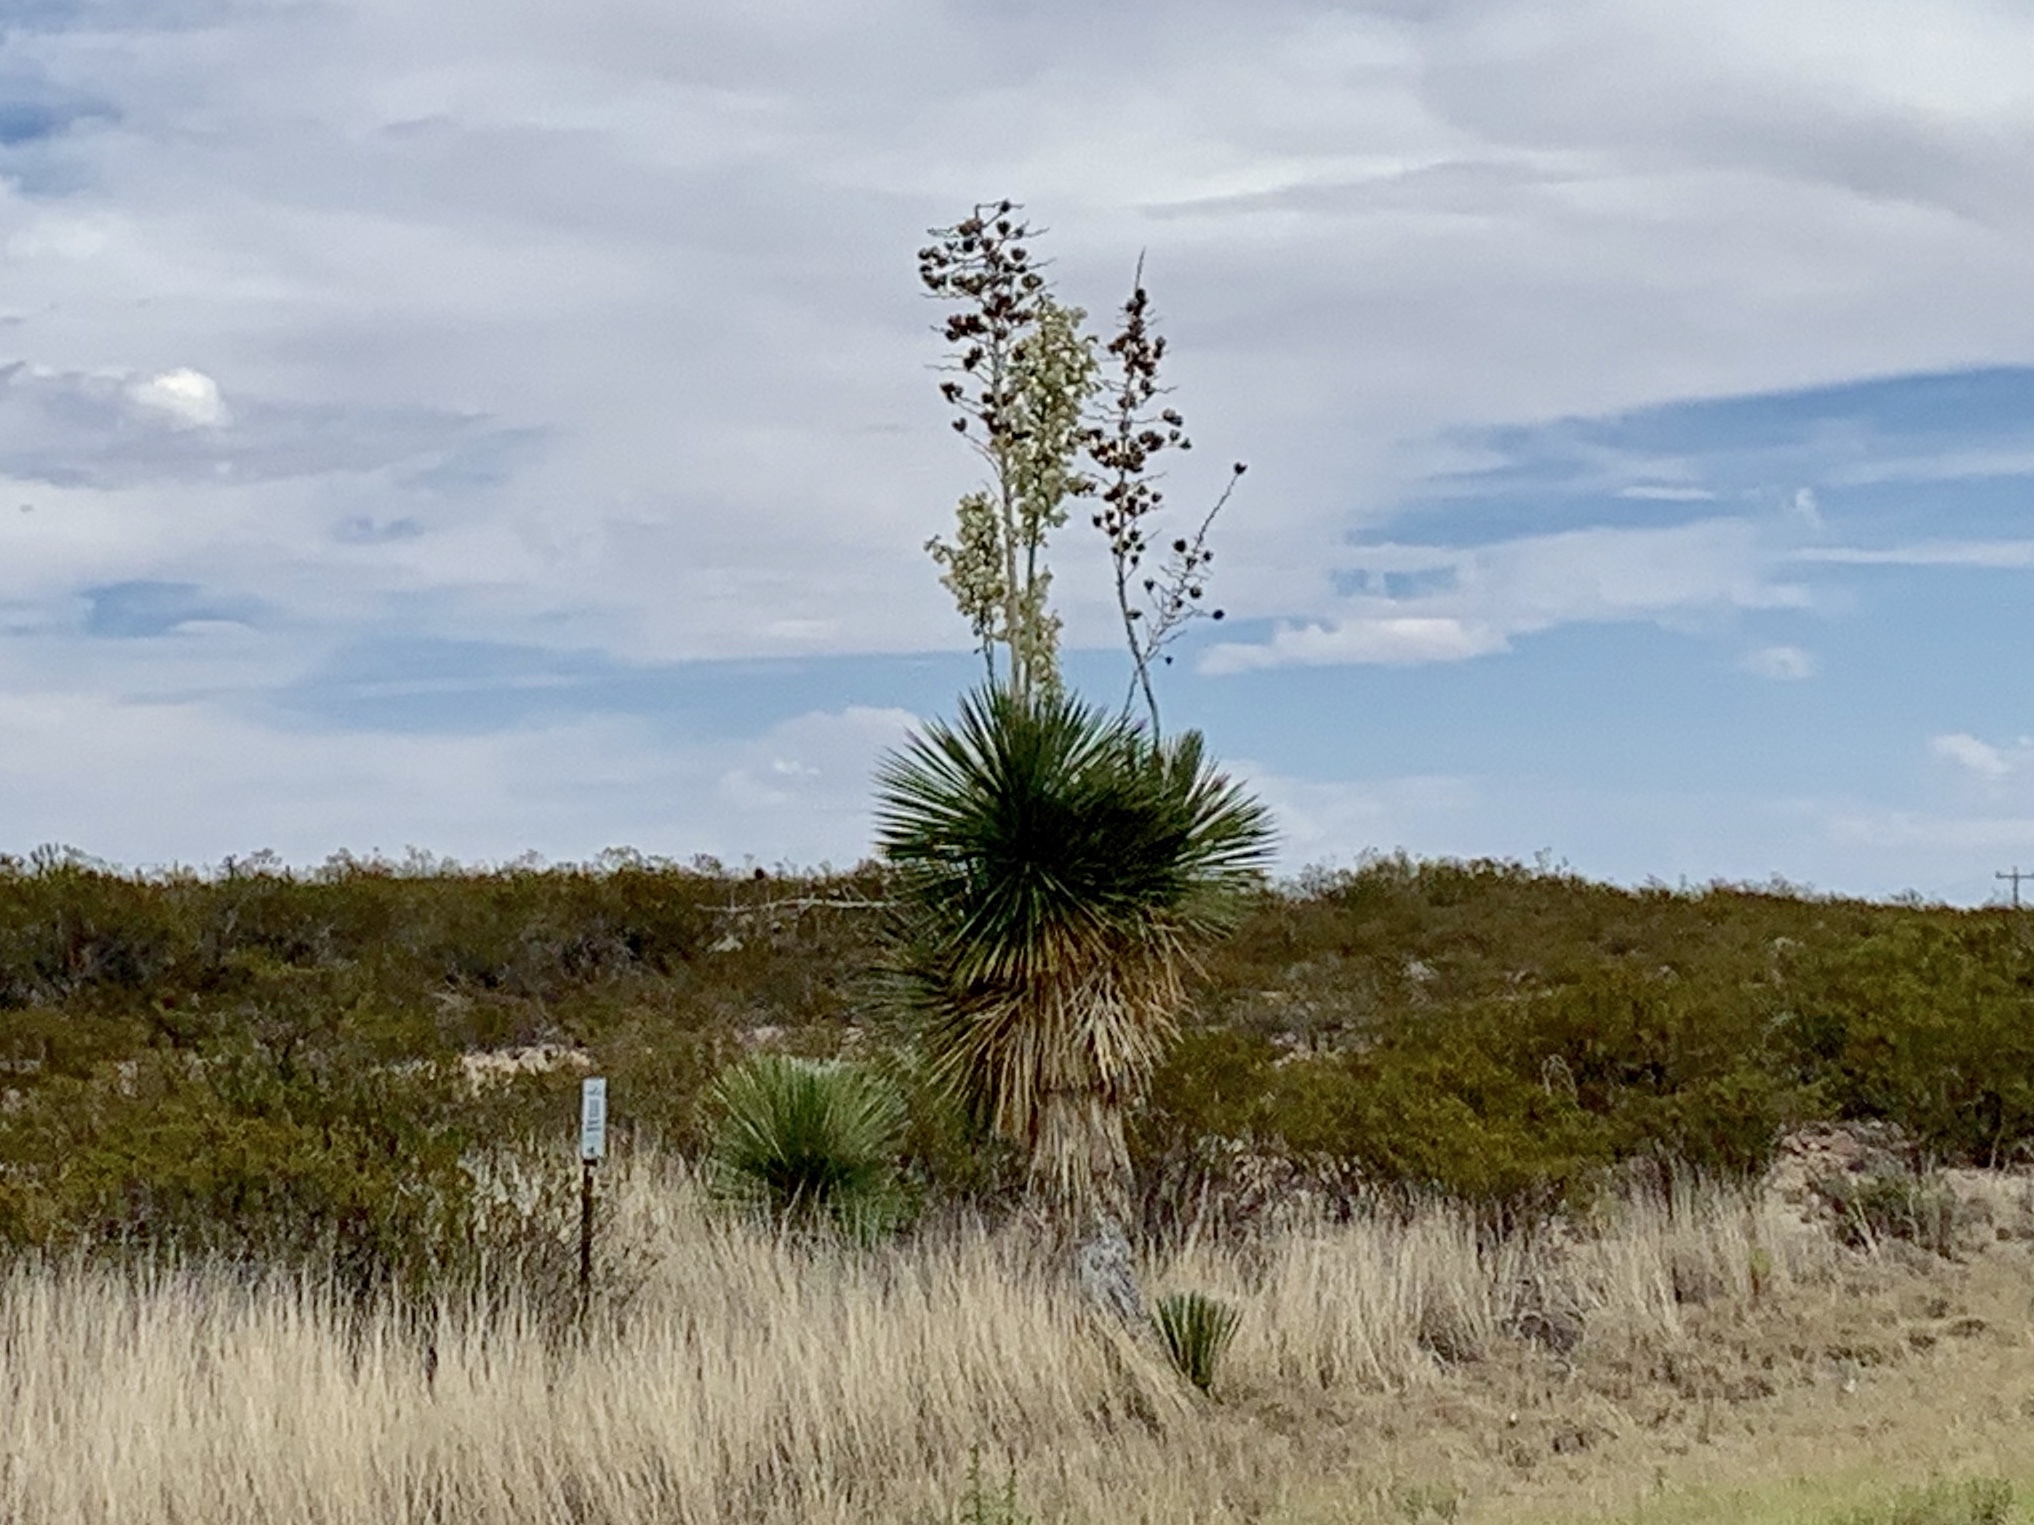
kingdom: Plantae
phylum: Tracheophyta
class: Liliopsida
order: Asparagales
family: Asparagaceae
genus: Yucca
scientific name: Yucca elata
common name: Palmella
